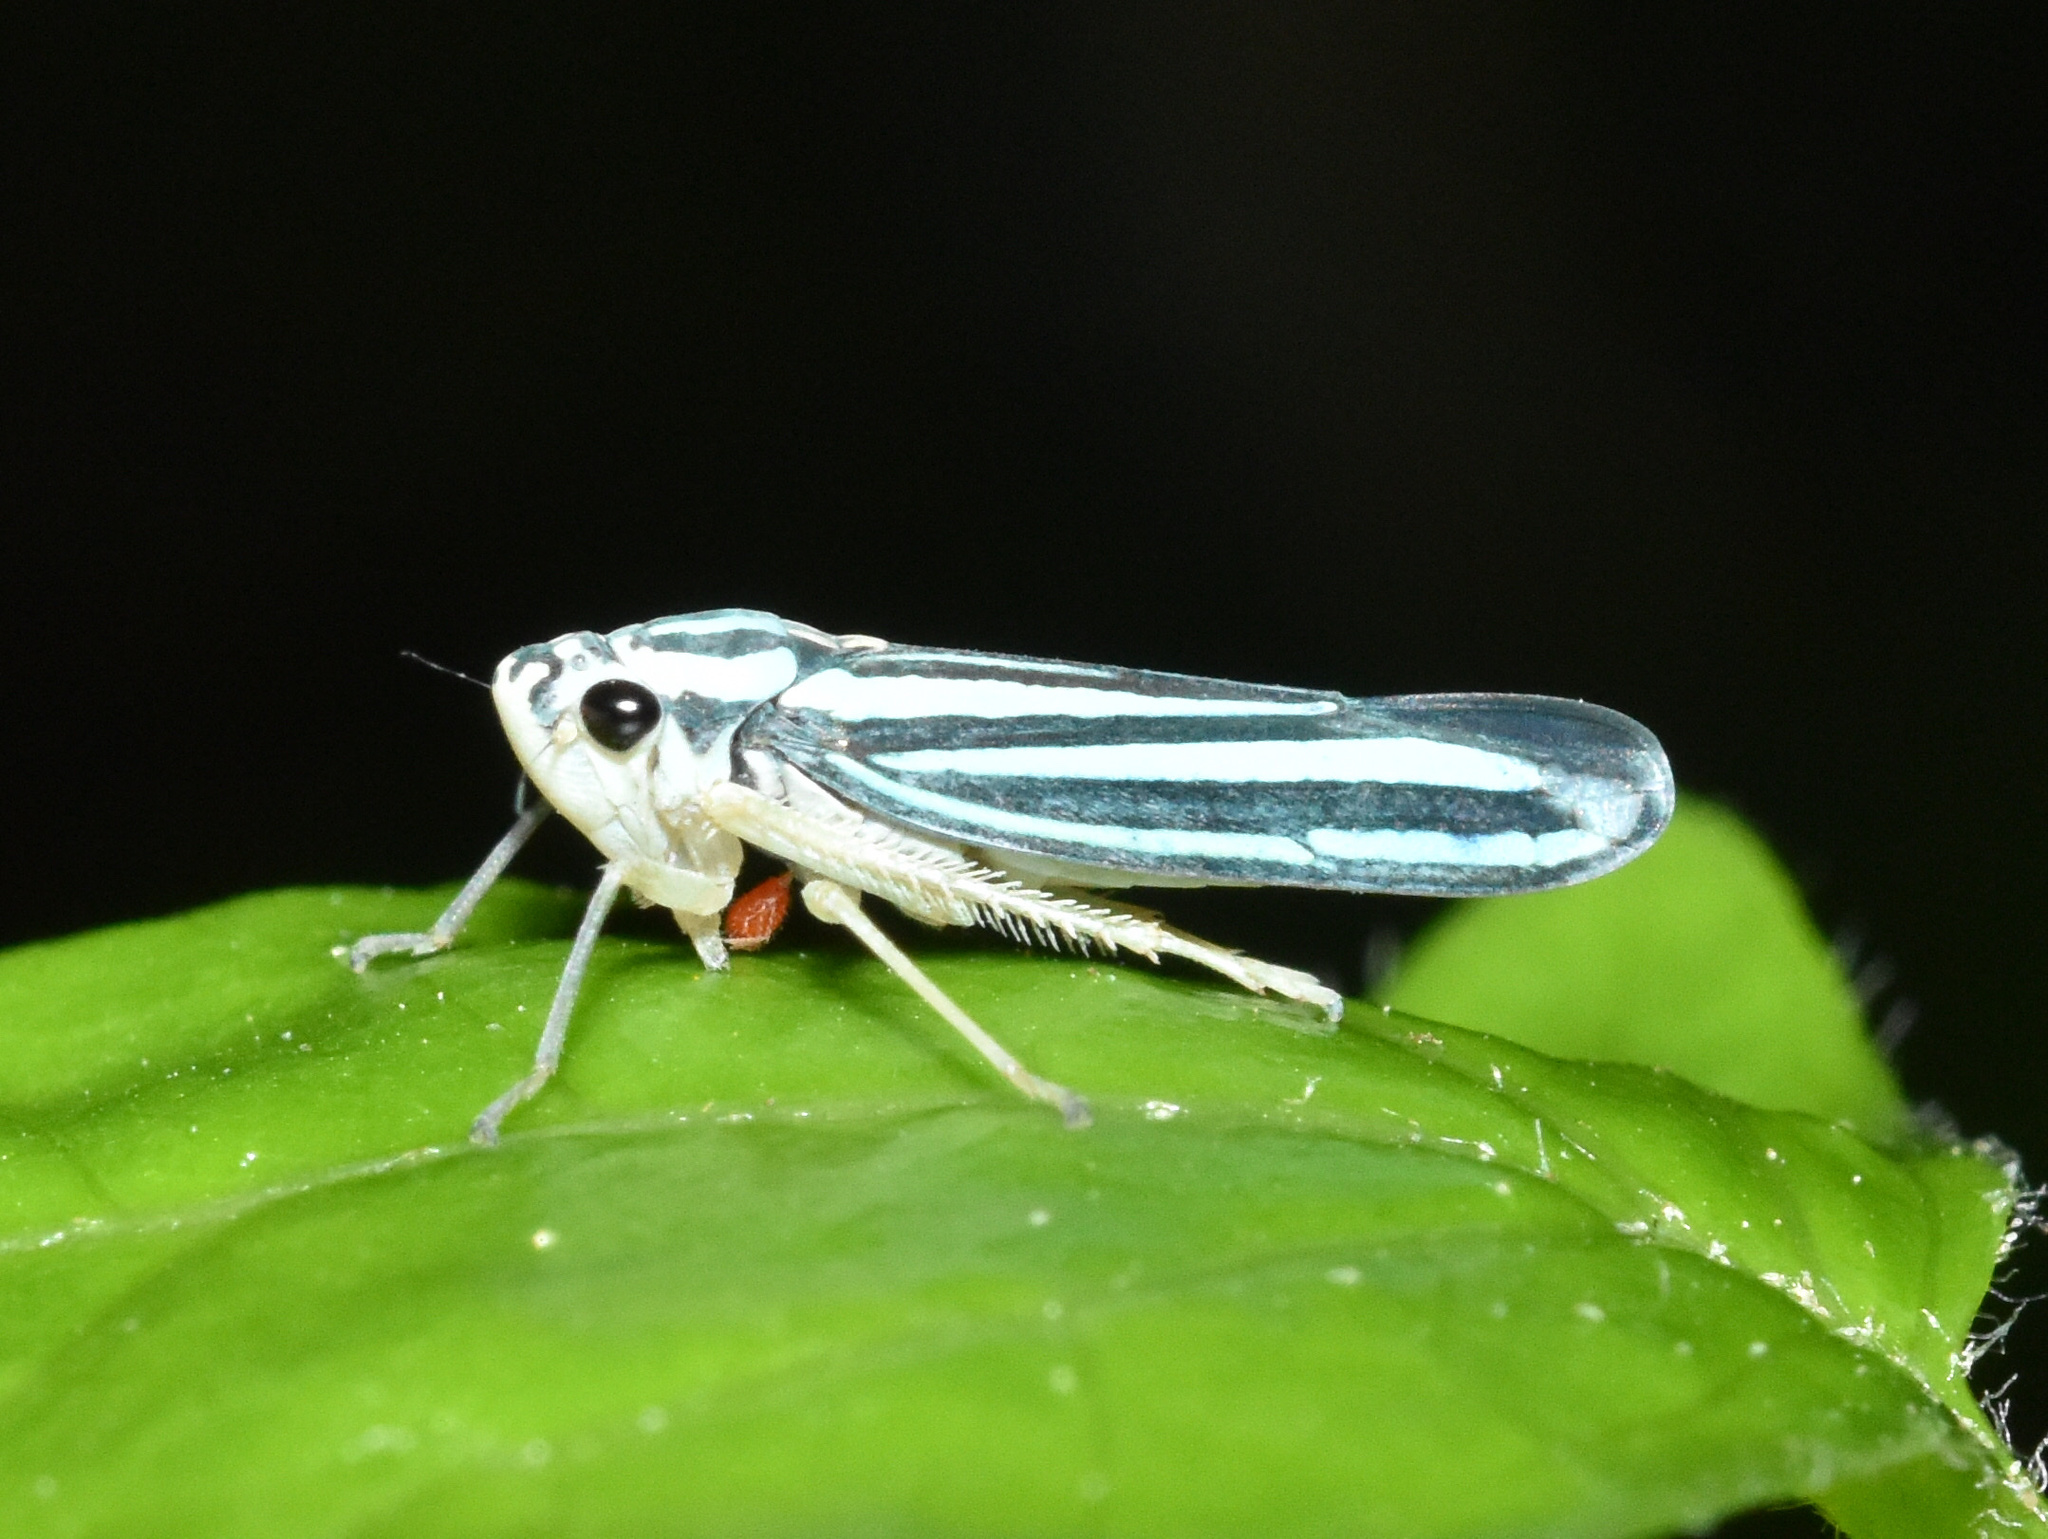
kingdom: Animalia
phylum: Arthropoda
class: Insecta
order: Hemiptera
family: Cicadellidae
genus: Tettigoniella
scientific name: Tettigoniella cosmopolita
